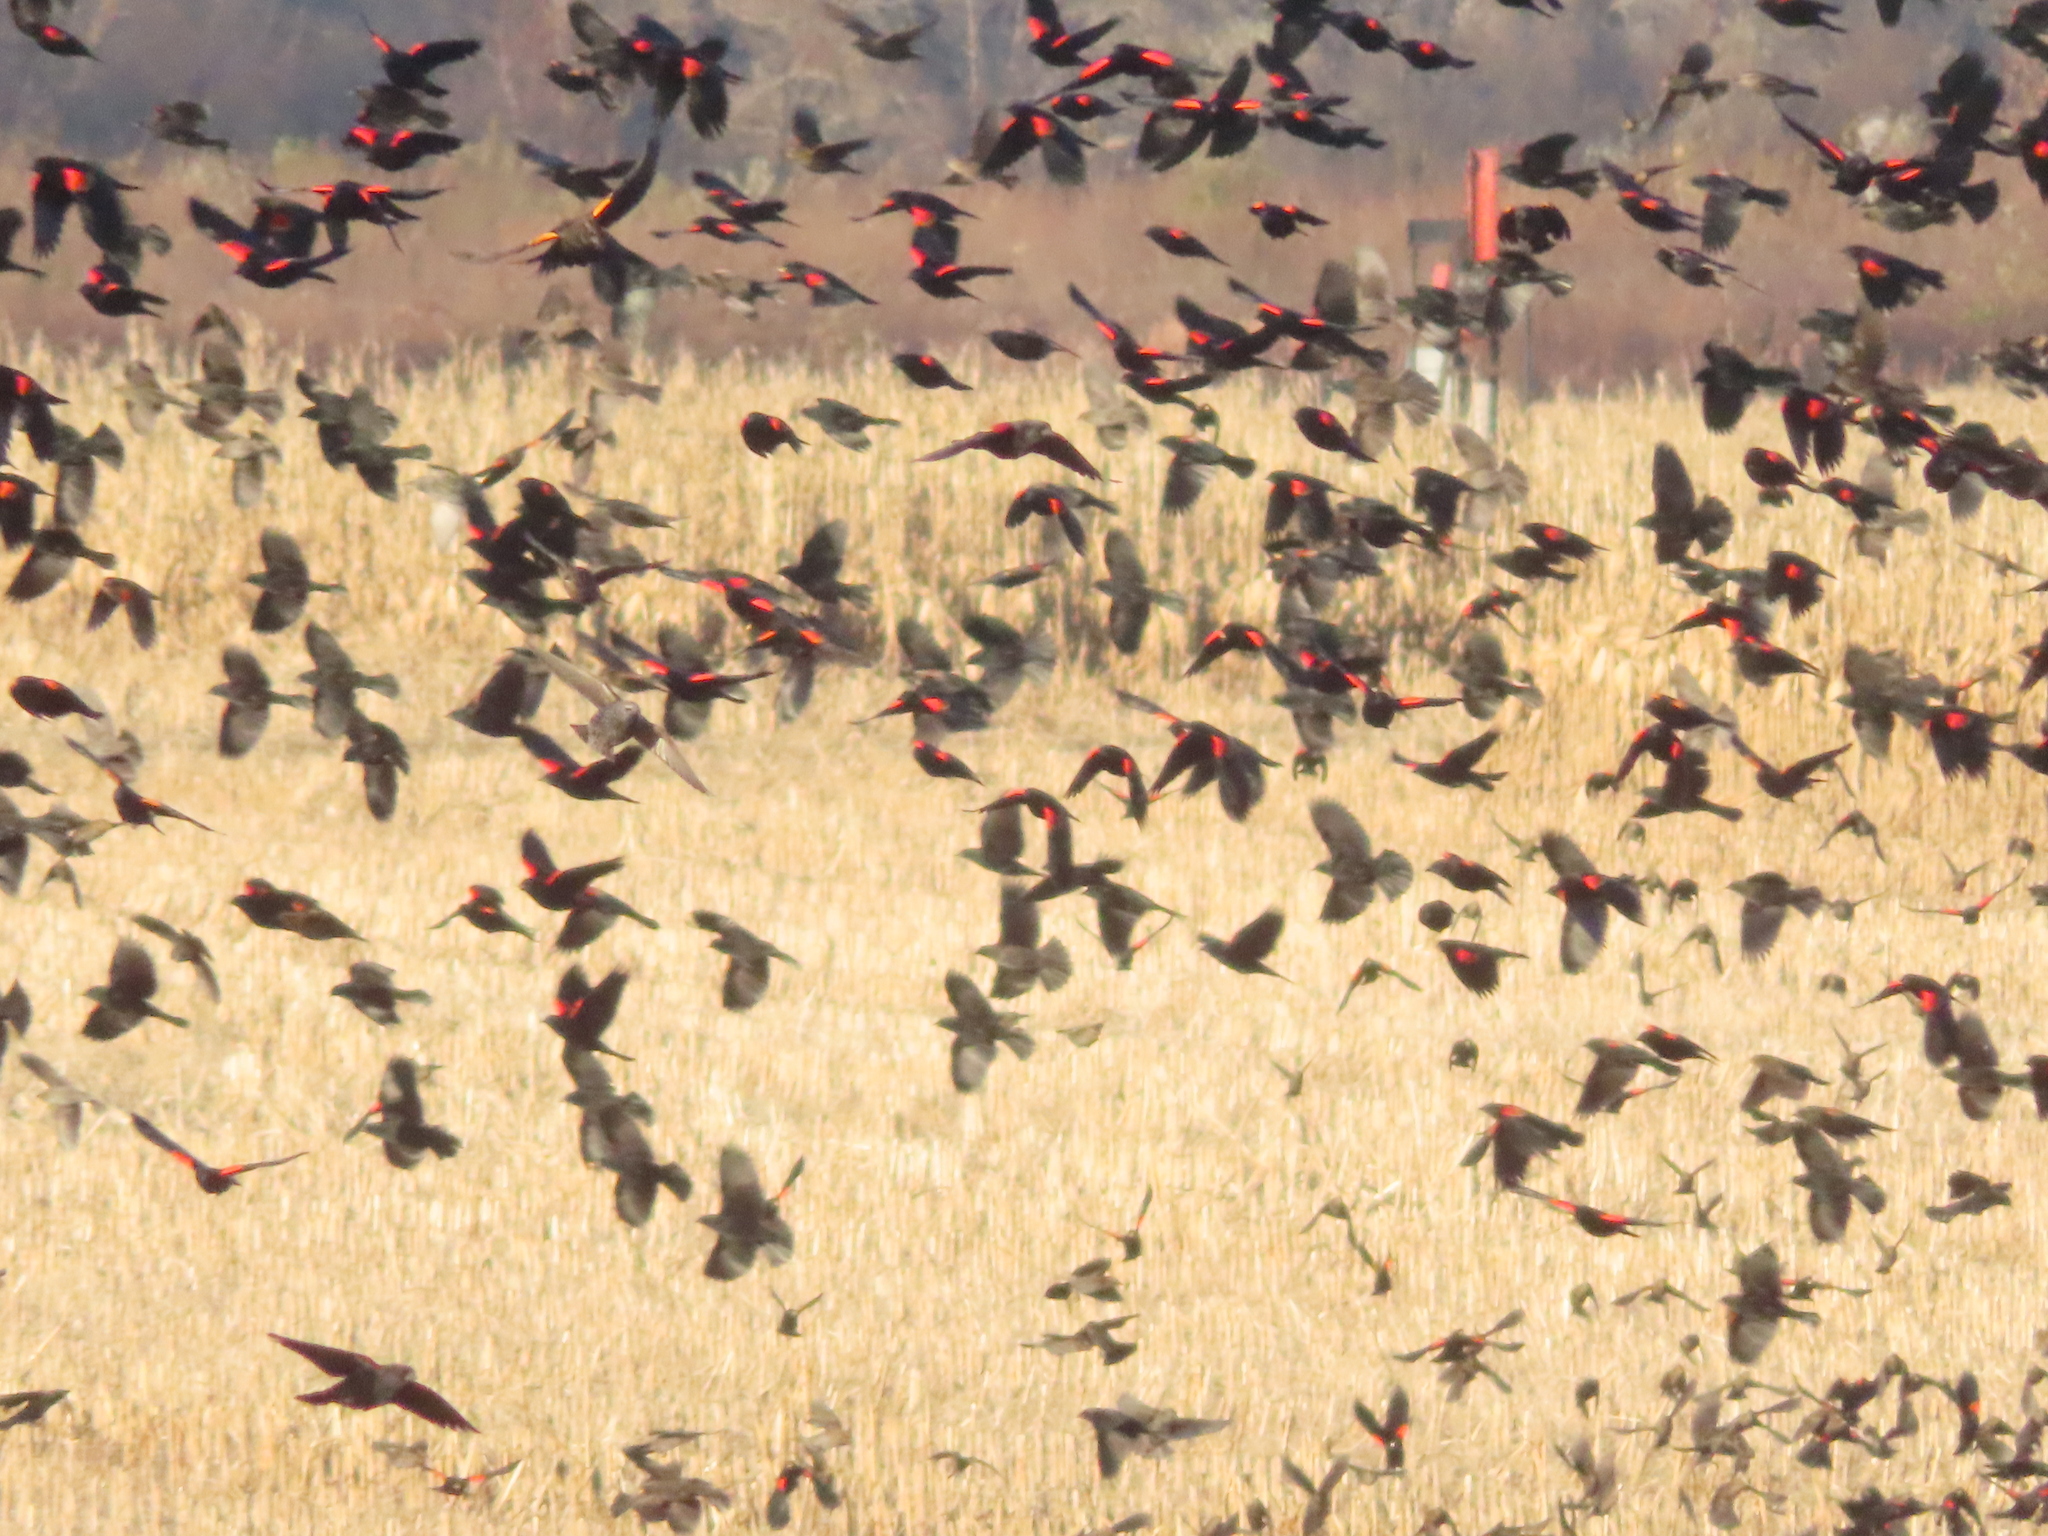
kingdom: Animalia
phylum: Chordata
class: Aves
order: Passeriformes
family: Icteridae
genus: Agelaius
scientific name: Agelaius phoeniceus
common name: Red-winged blackbird
